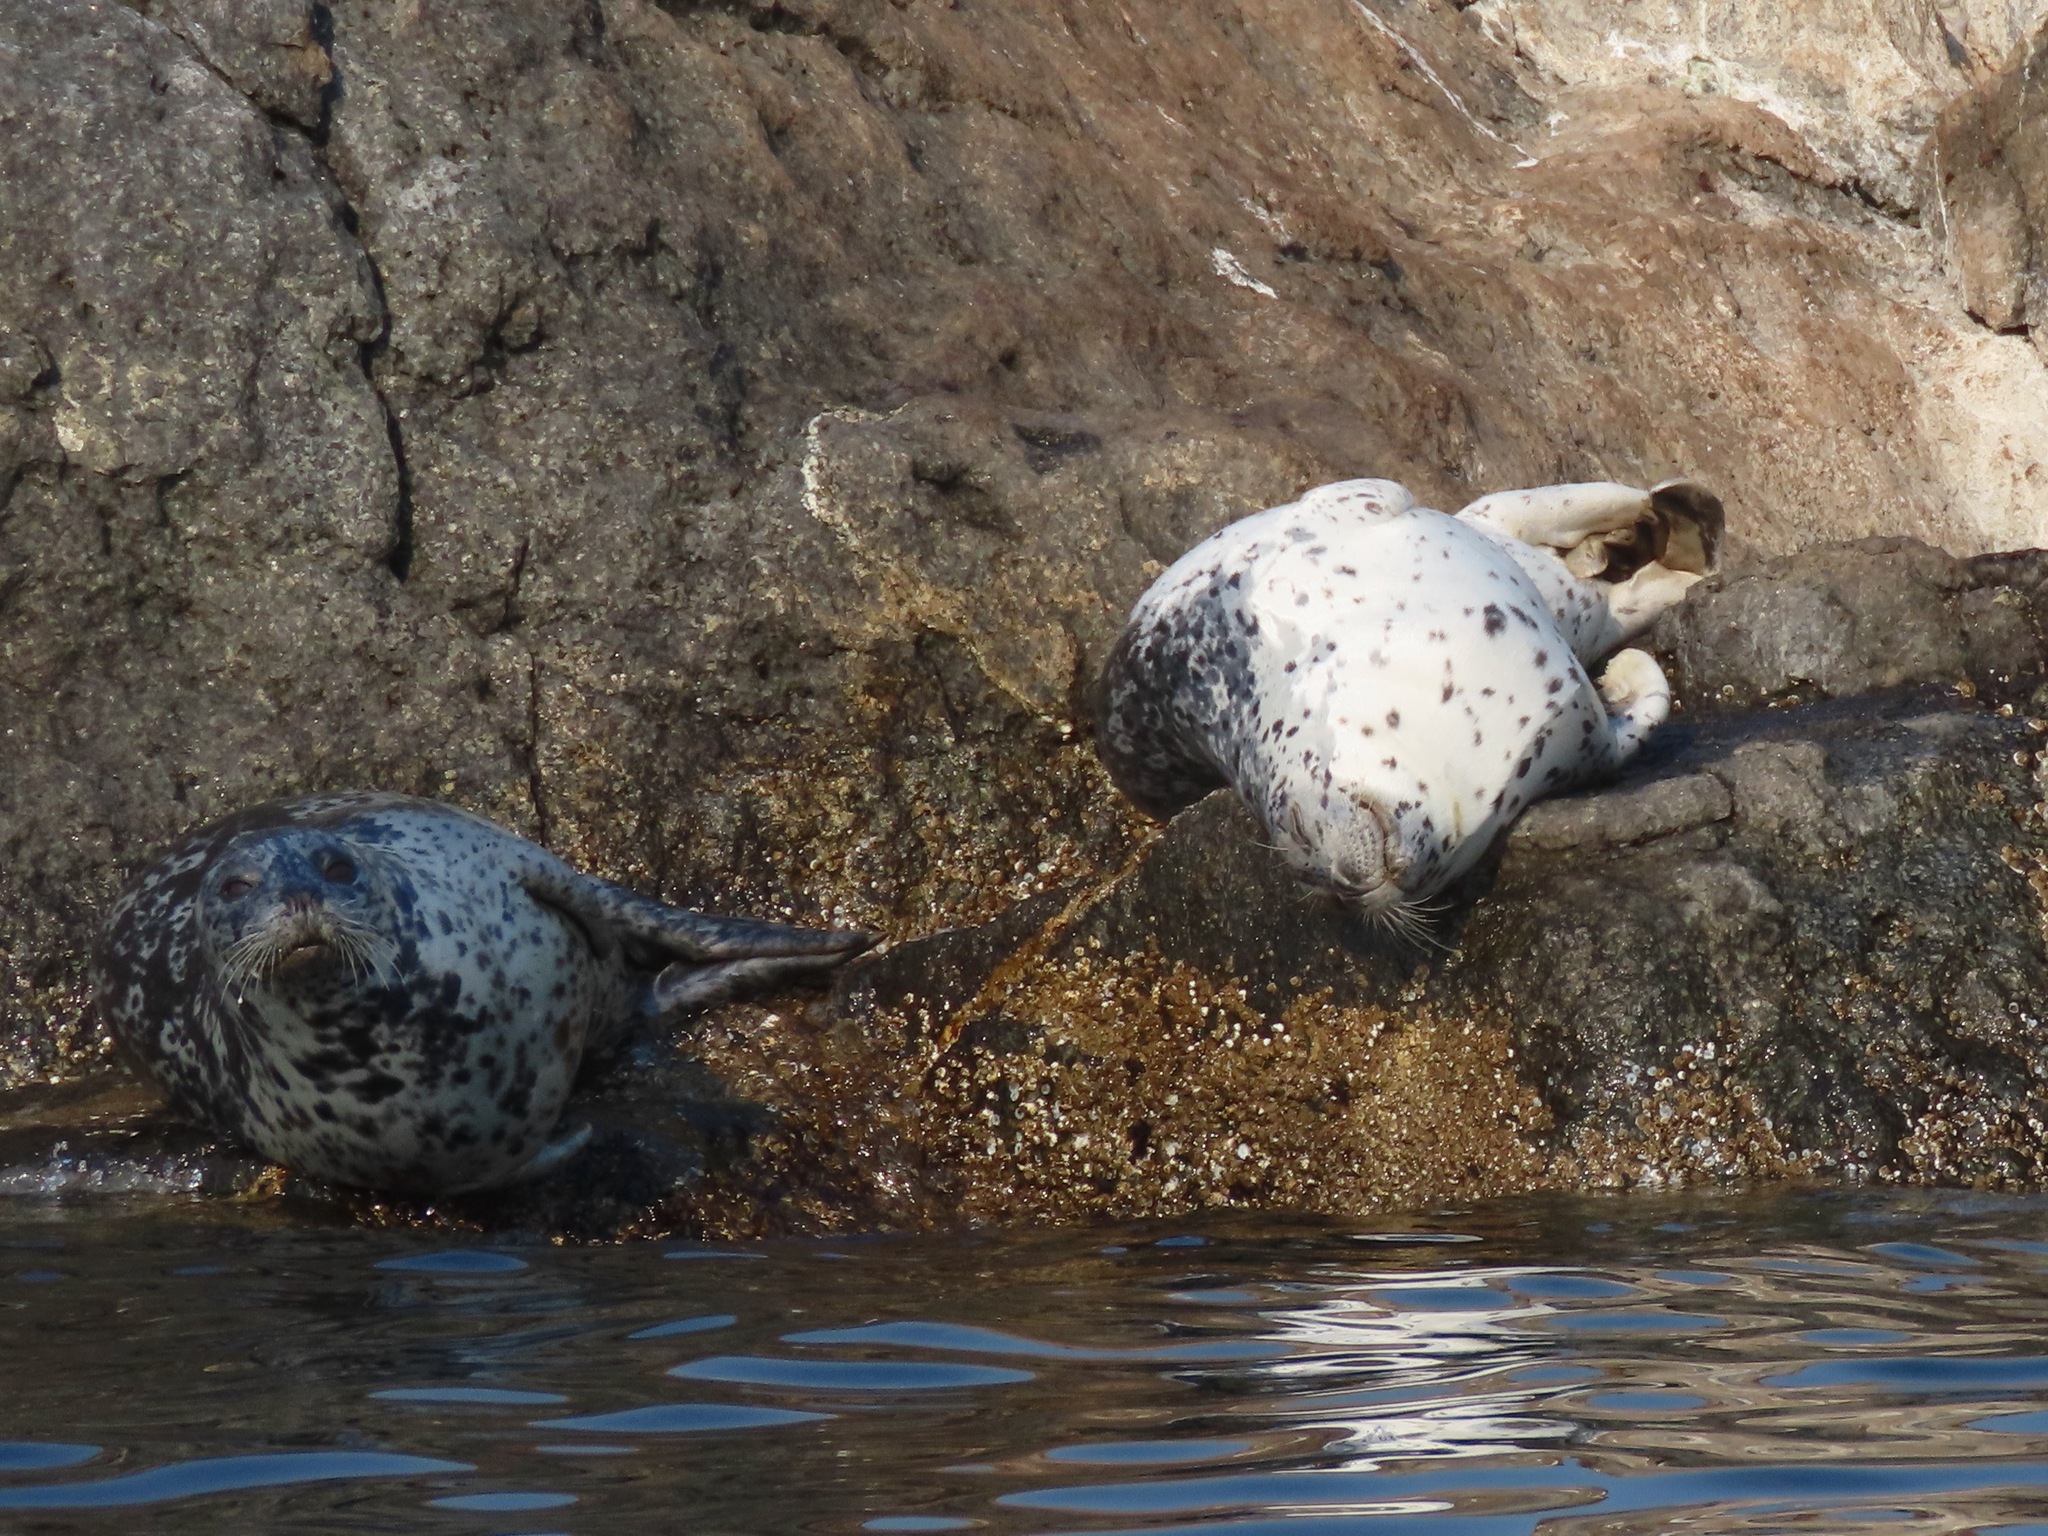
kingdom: Animalia
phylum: Chordata
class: Mammalia
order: Carnivora
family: Phocidae
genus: Phoca
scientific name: Phoca vitulina
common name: Harbor seal
